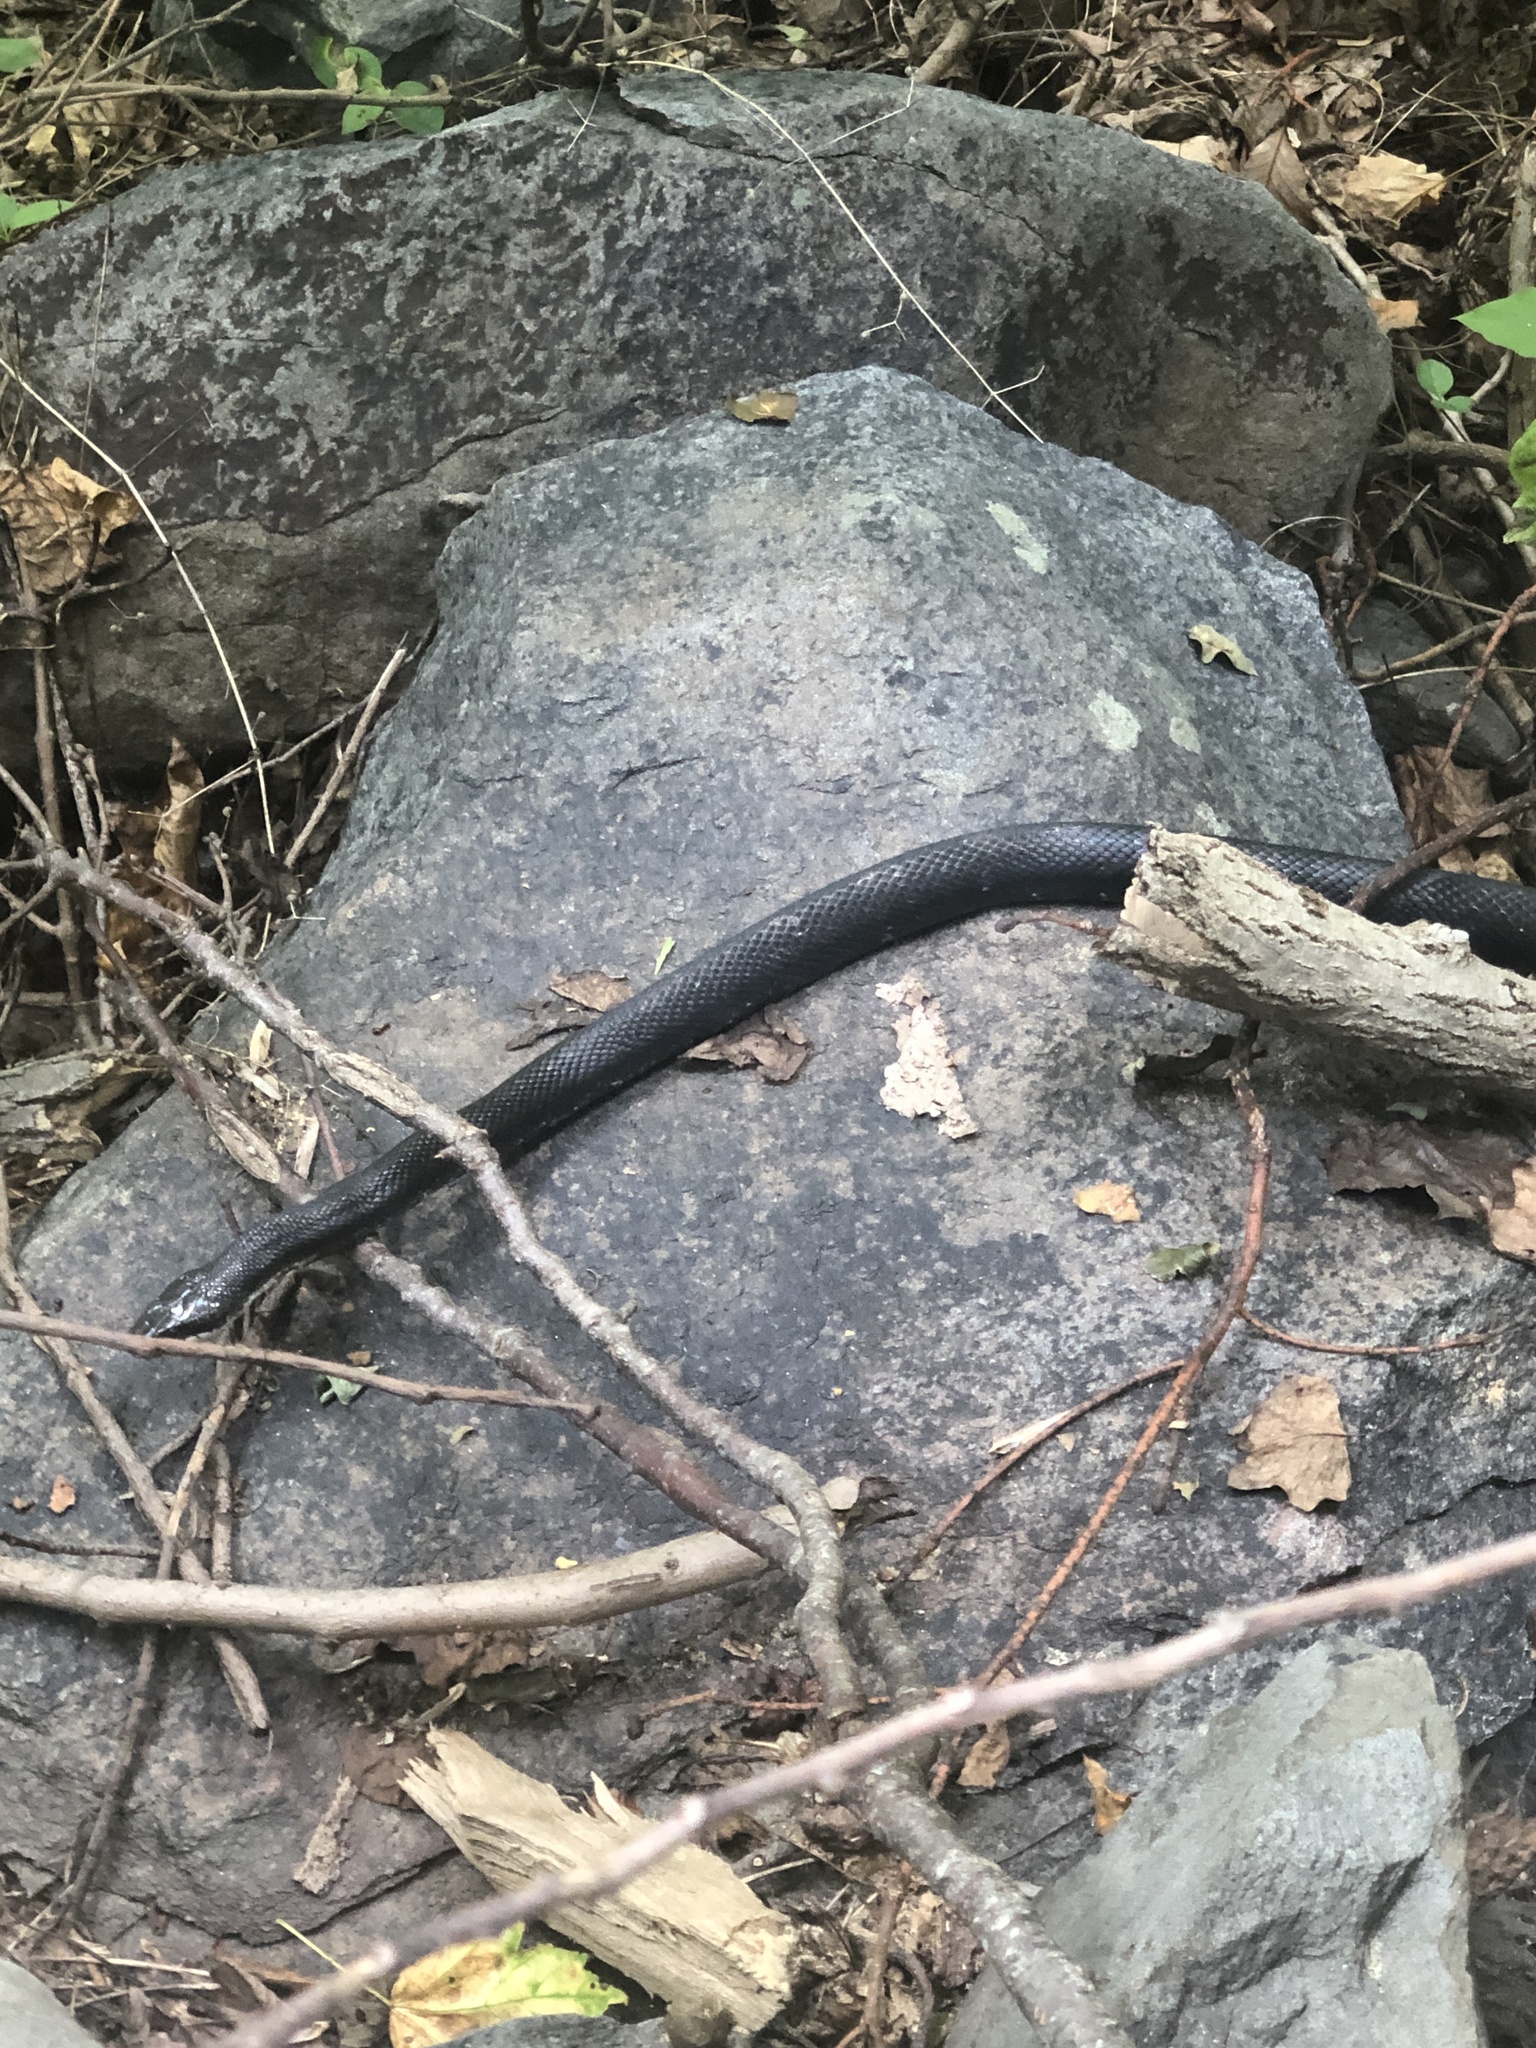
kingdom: Animalia
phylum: Chordata
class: Squamata
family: Colubridae
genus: Pantherophis
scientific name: Pantherophis
